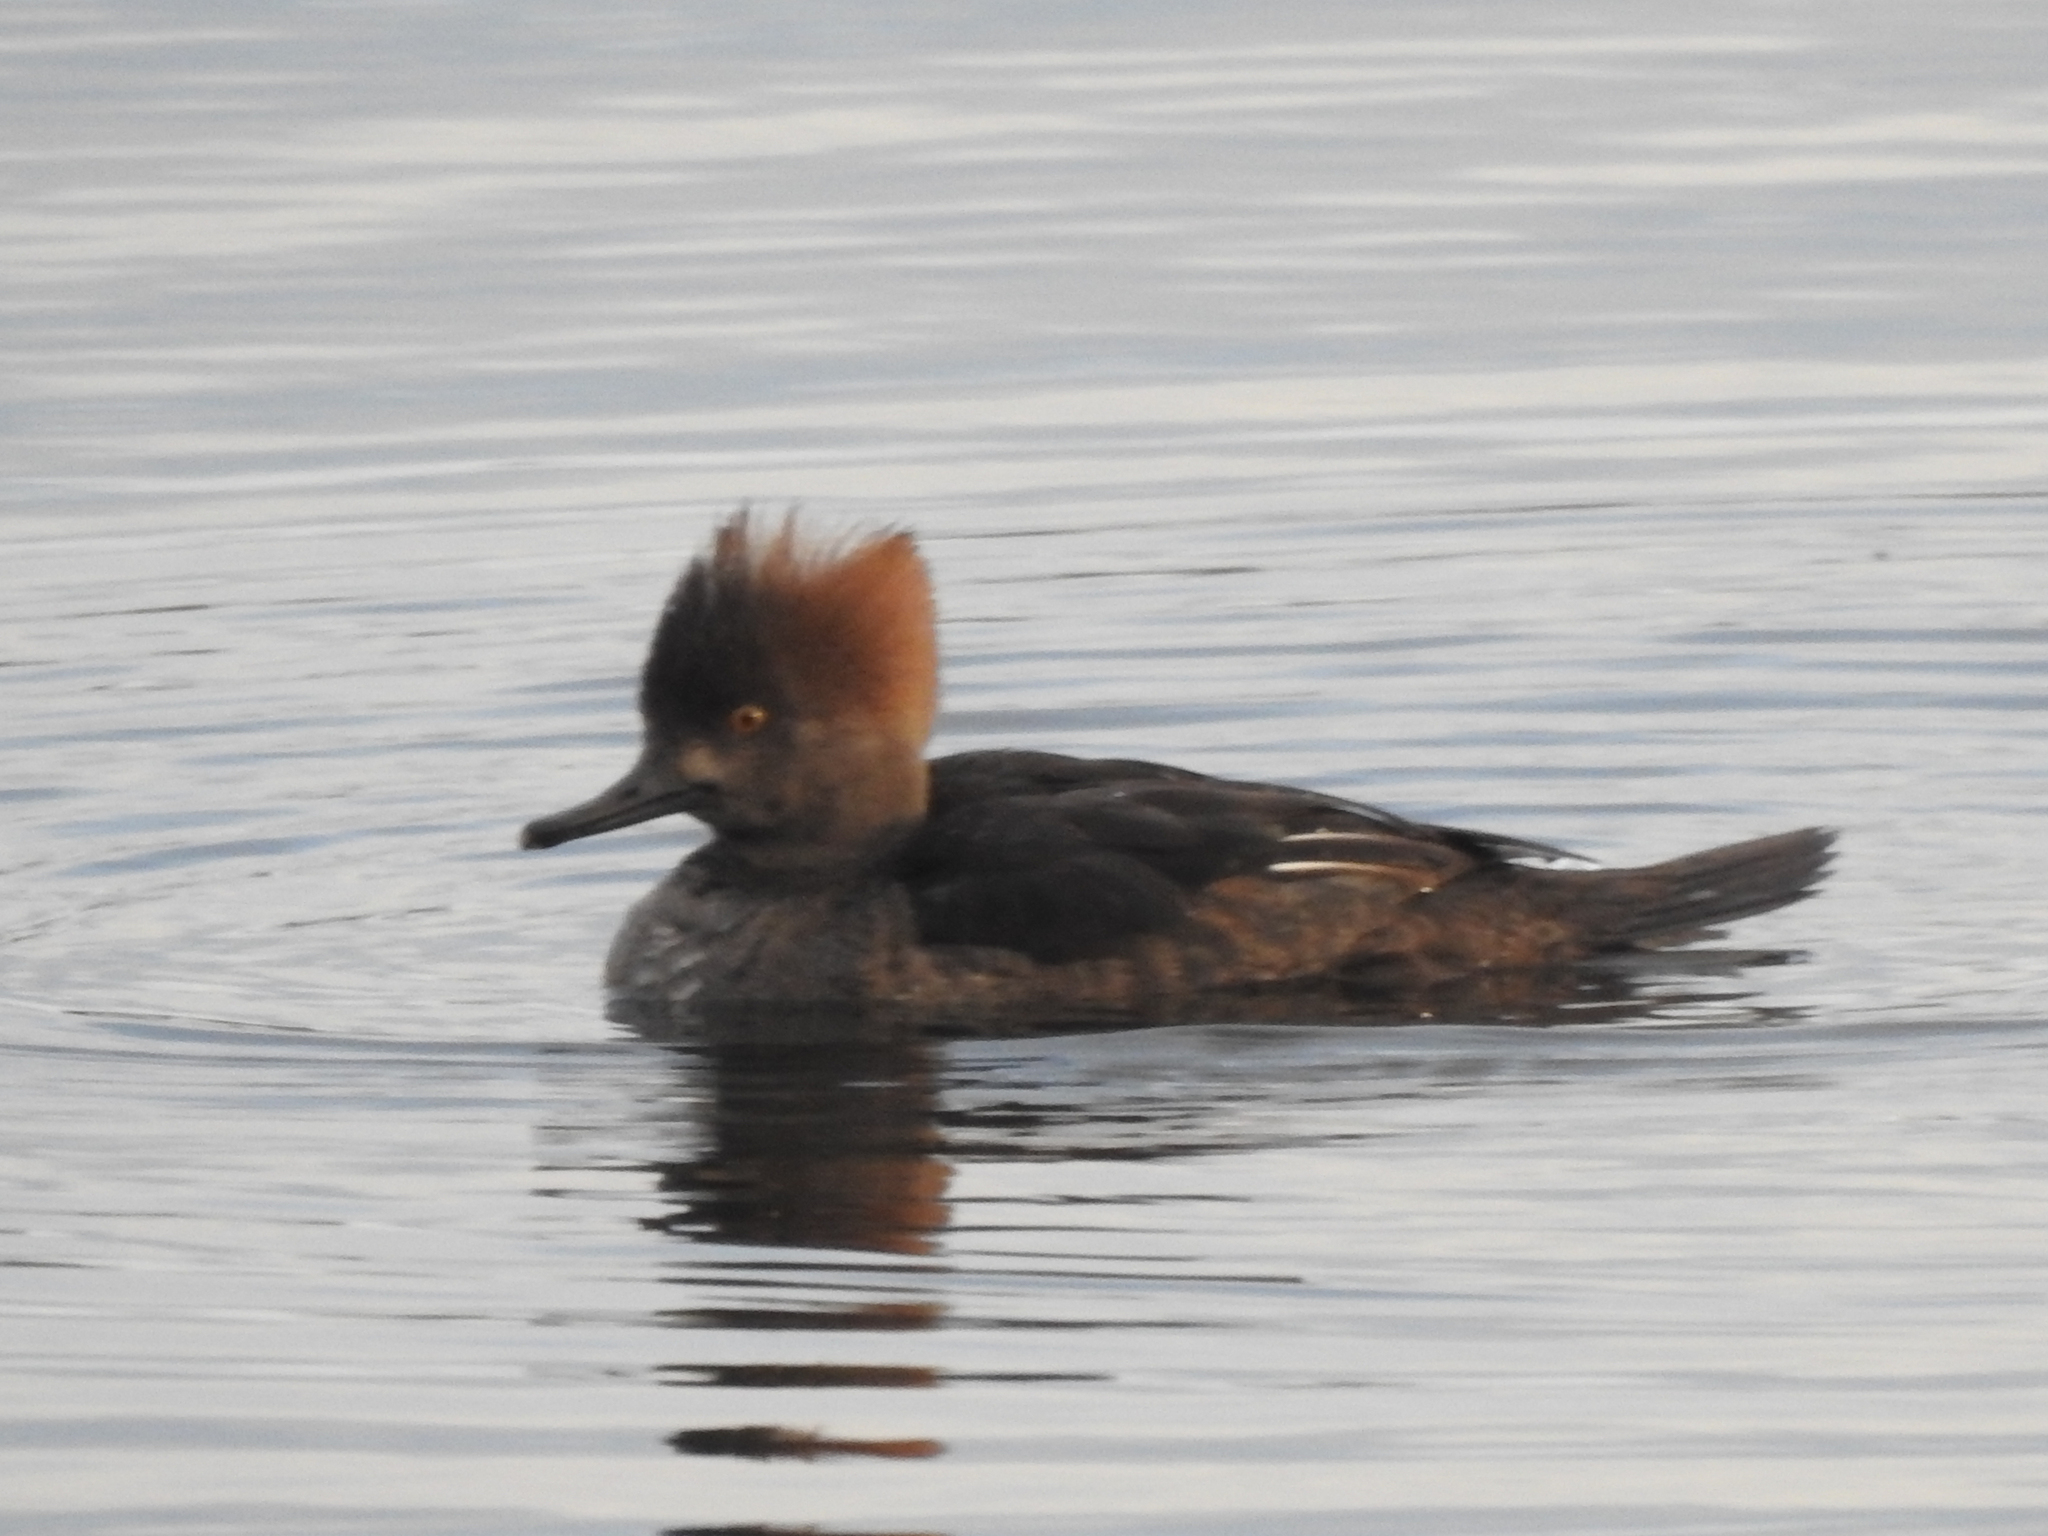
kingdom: Animalia
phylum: Chordata
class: Aves
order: Anseriformes
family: Anatidae
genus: Lophodytes
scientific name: Lophodytes cucullatus
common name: Hooded merganser
